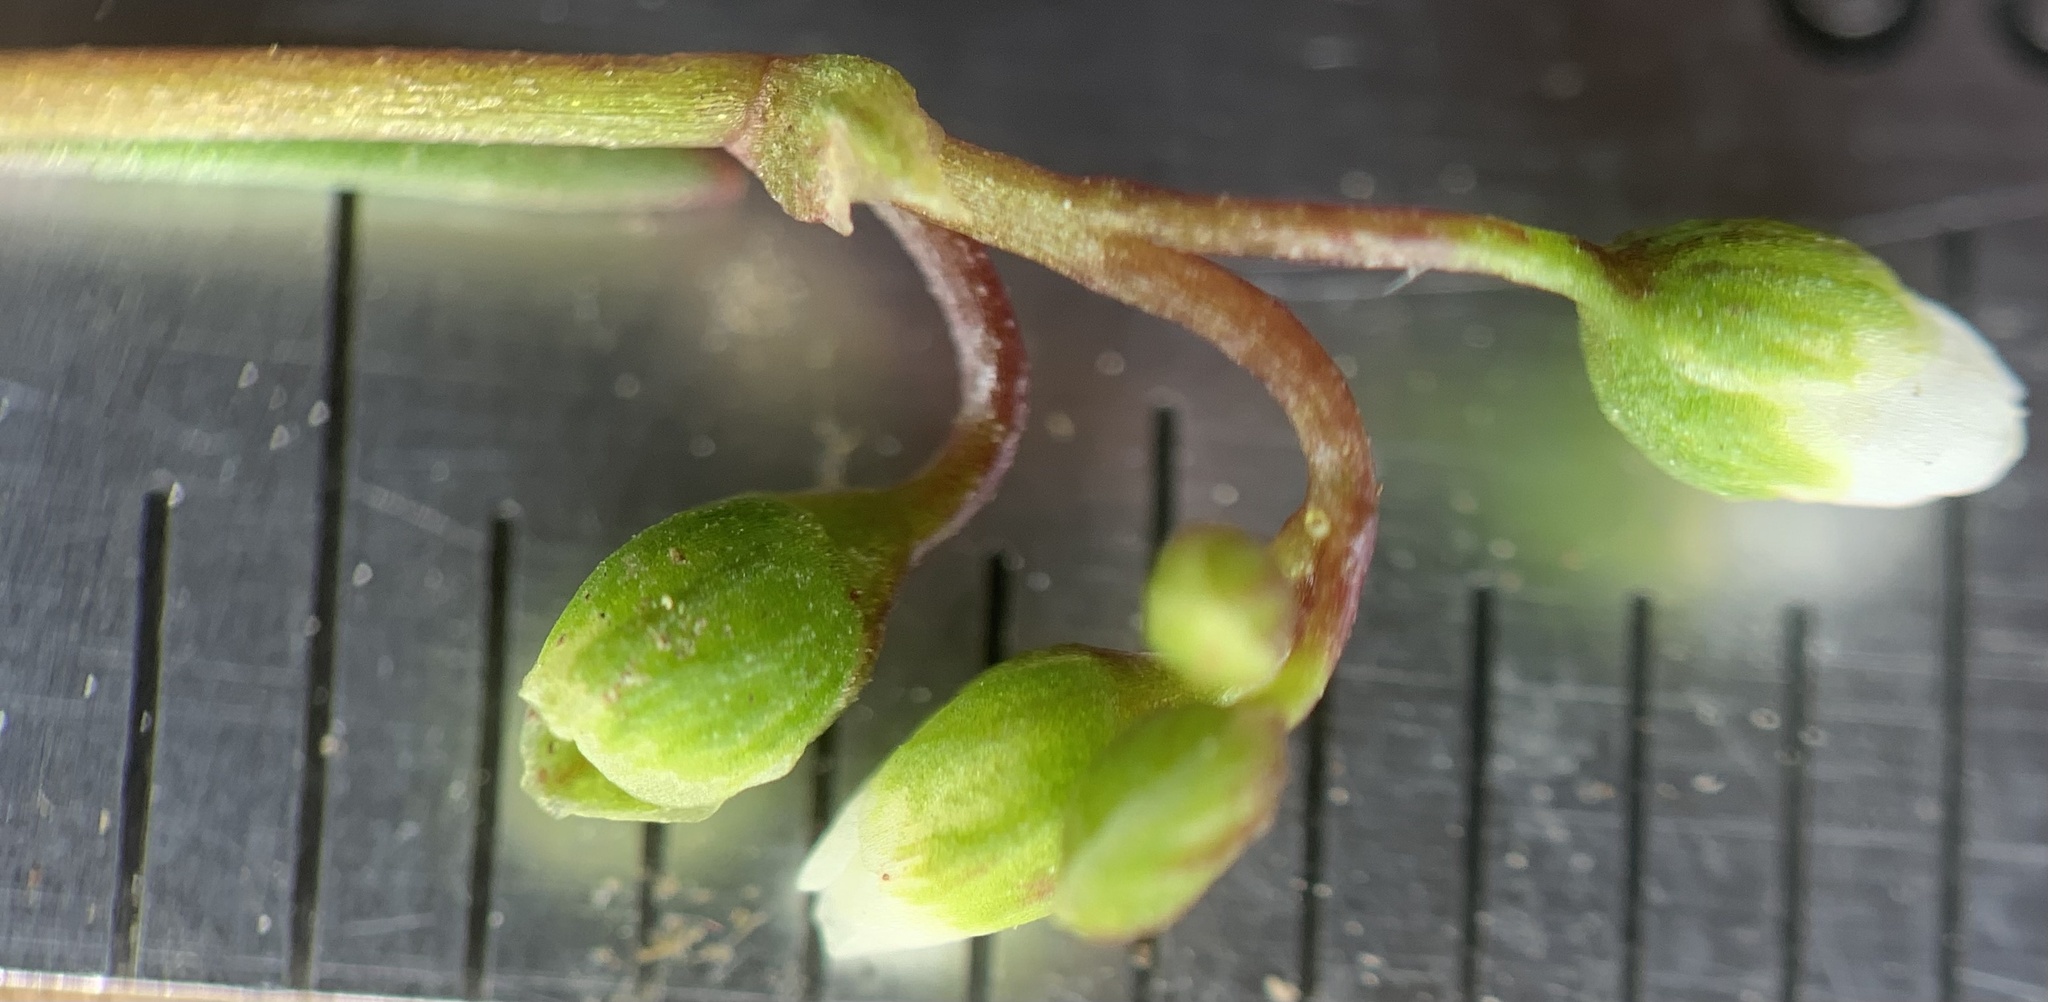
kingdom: Plantae
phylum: Tracheophyta
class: Magnoliopsida
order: Caryophyllales
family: Montiaceae
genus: Montia
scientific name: Montia dichotoma
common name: Dwarf miner's-lettuce
